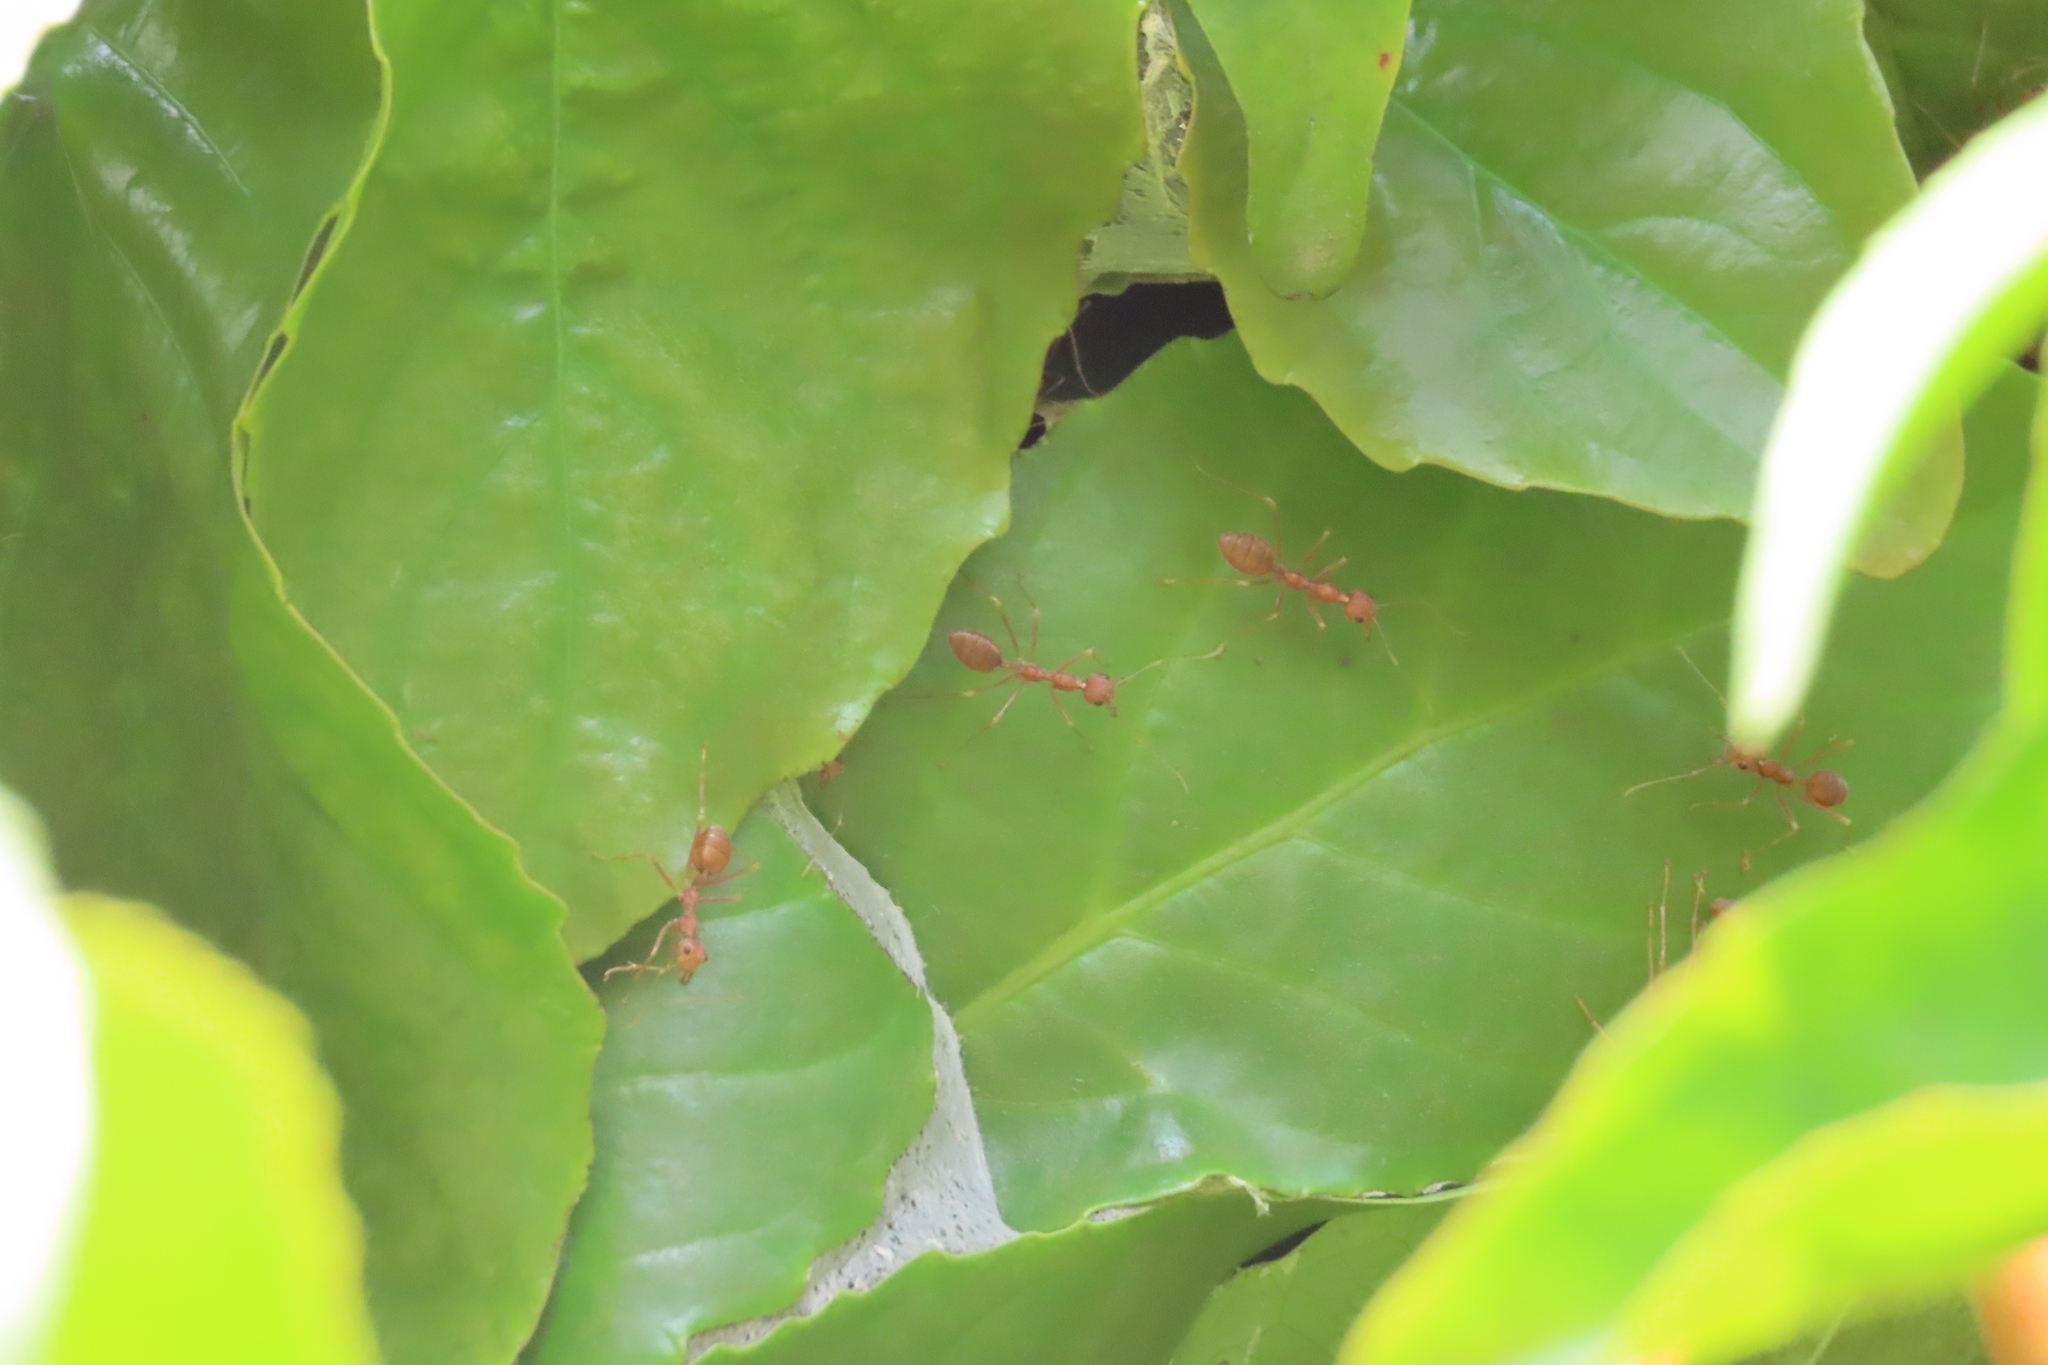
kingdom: Animalia
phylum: Arthropoda
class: Insecta
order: Hymenoptera
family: Formicidae
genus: Oecophylla
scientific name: Oecophylla smaragdina
